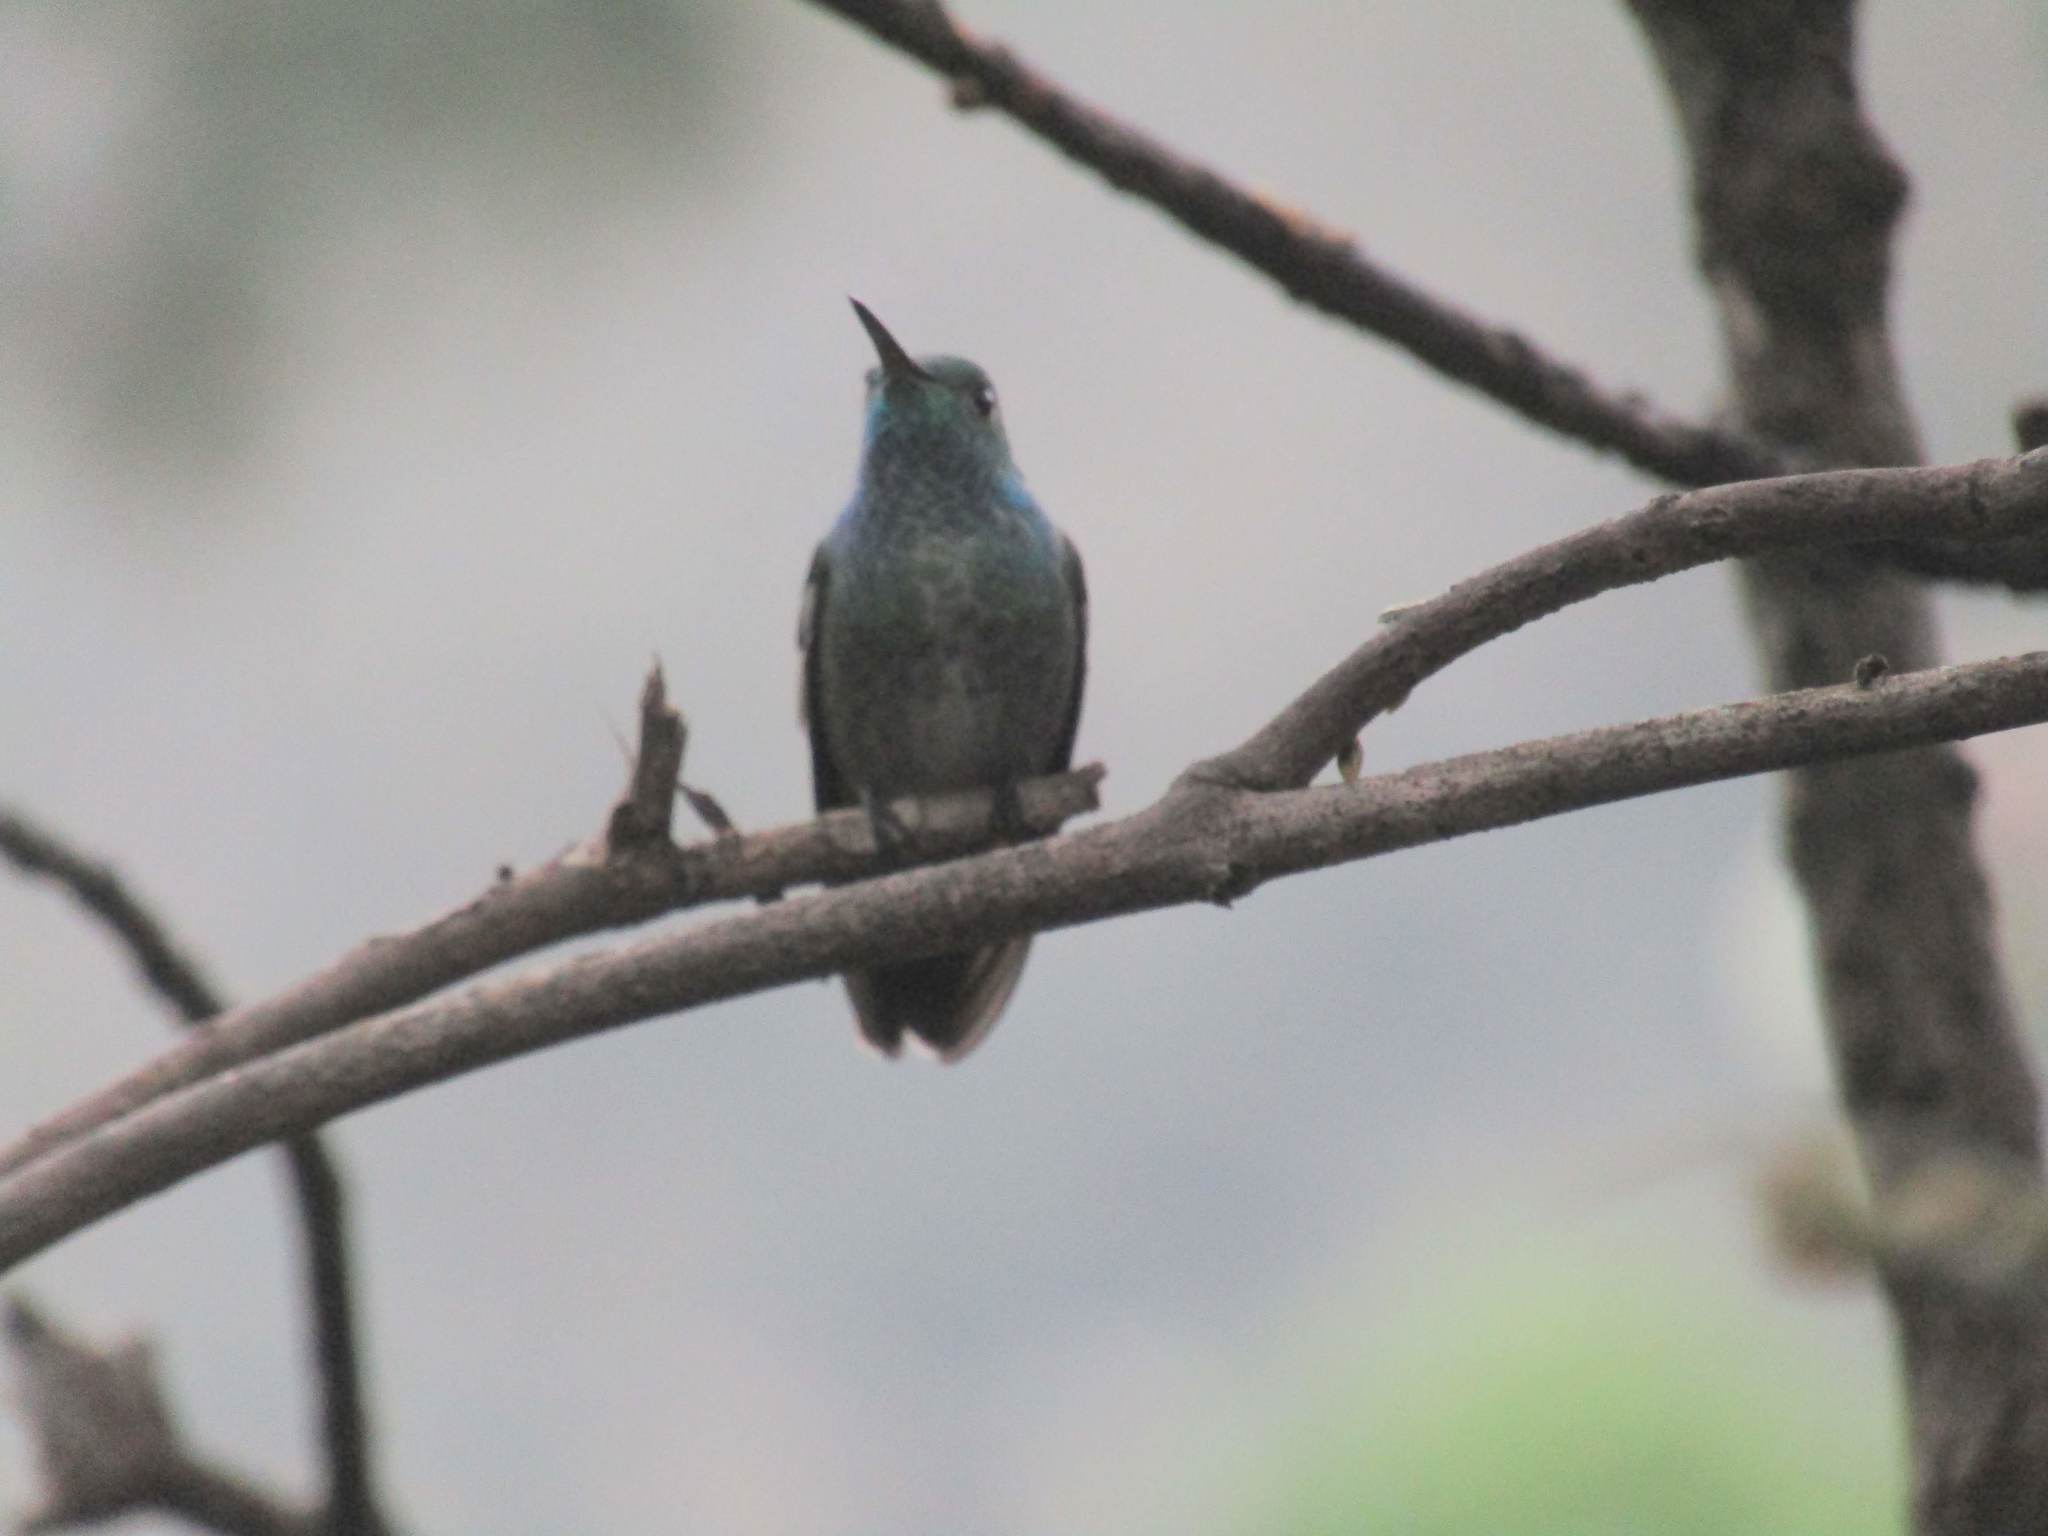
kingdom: Animalia
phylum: Chordata
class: Aves
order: Apodiformes
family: Trochilidae
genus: Chrysuronia
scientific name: Chrysuronia versicolor
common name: Versicolored emerald
